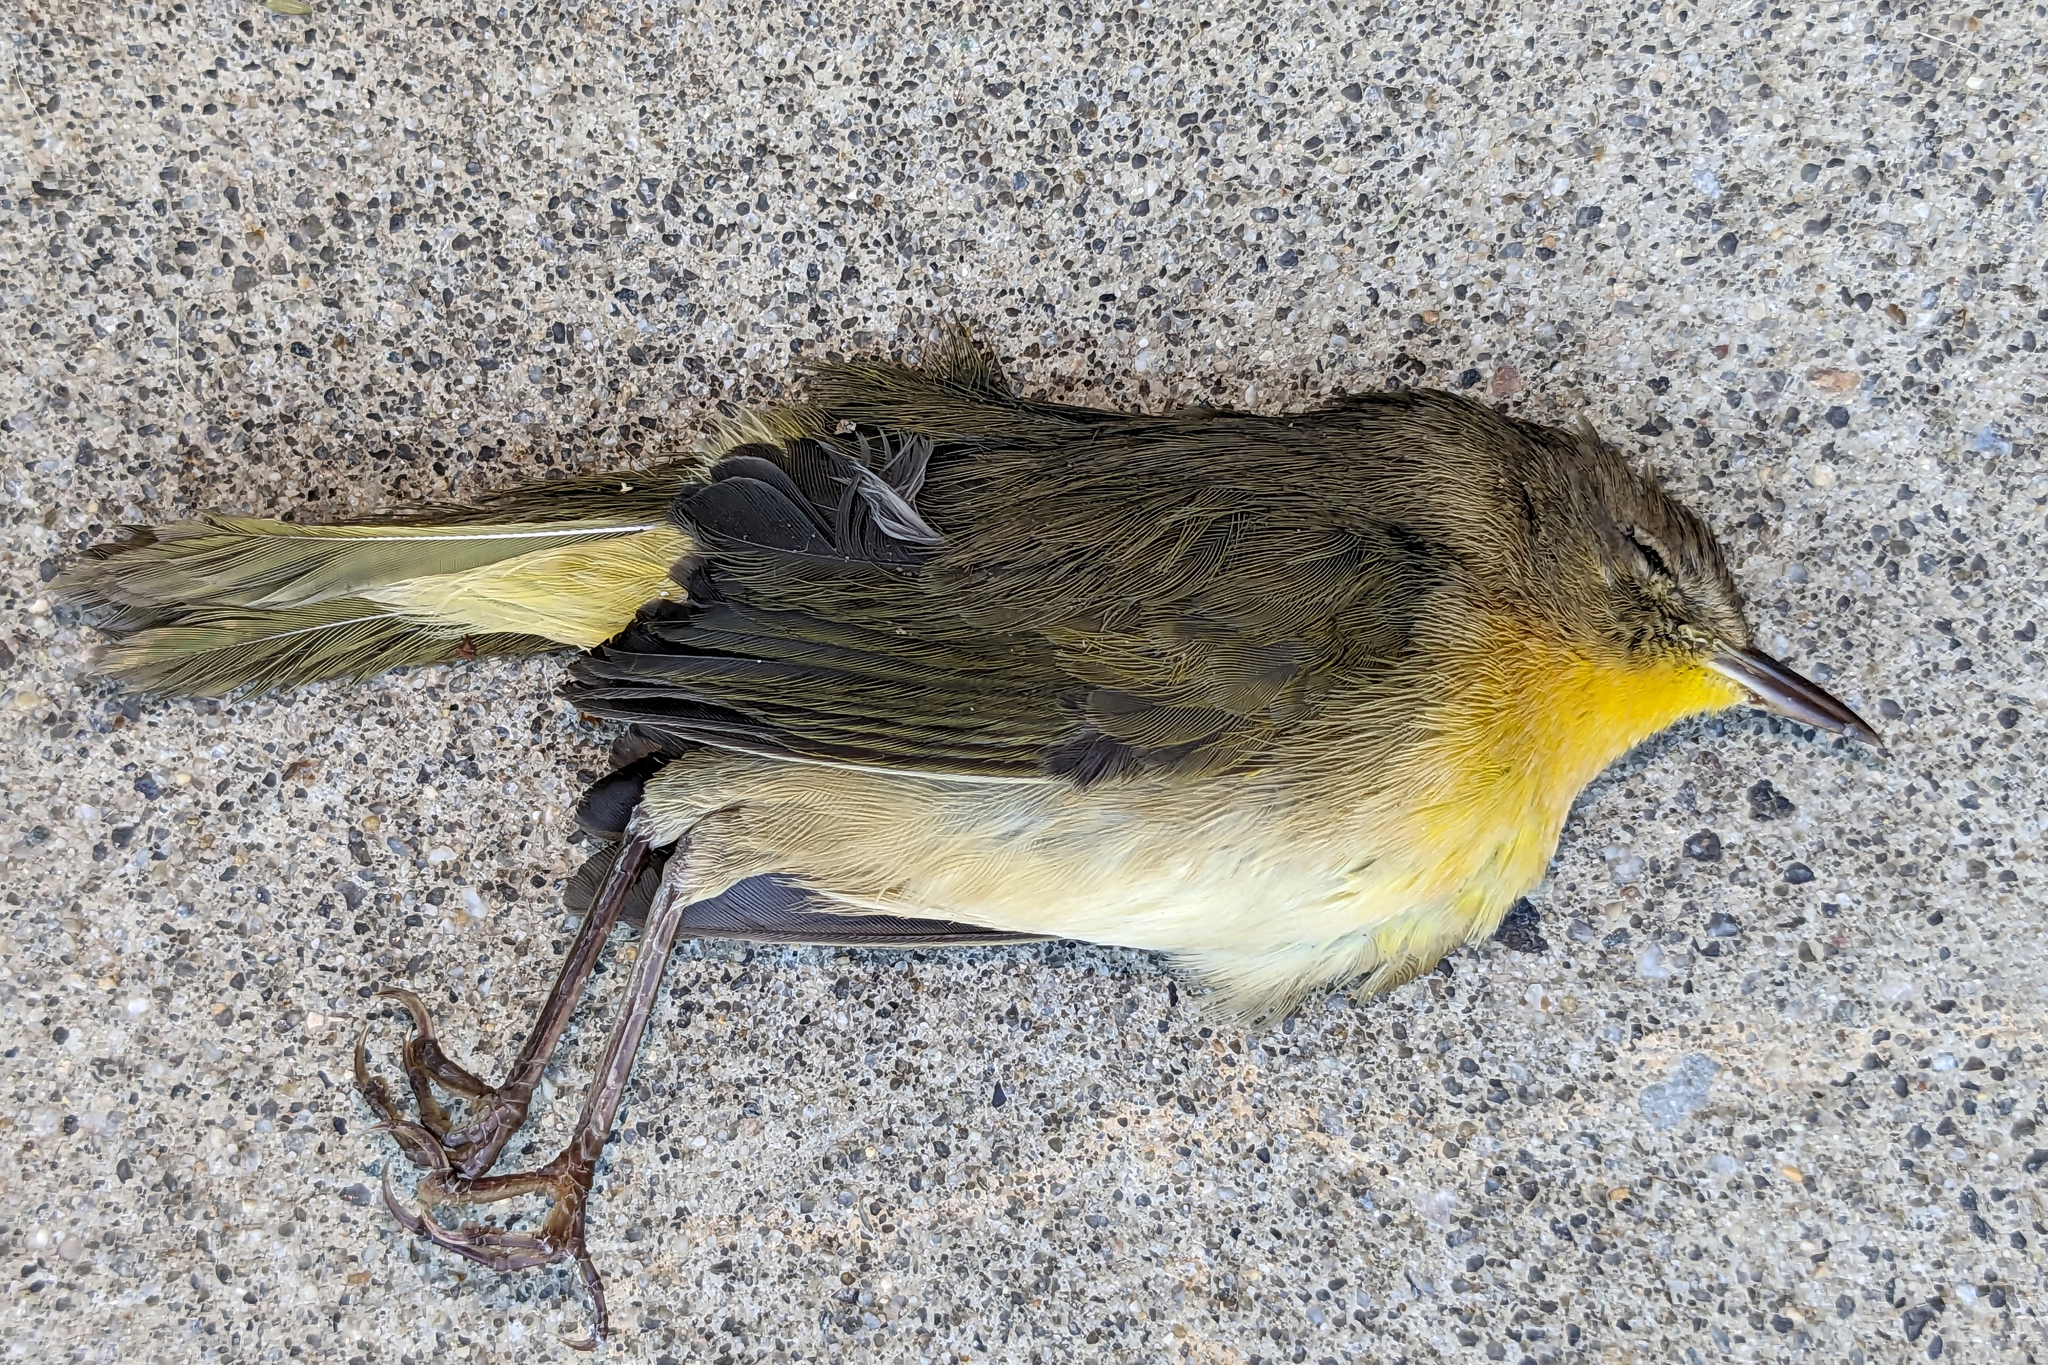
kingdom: Animalia
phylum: Chordata
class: Aves
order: Passeriformes
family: Parulidae
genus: Geothlypis
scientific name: Geothlypis trichas
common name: Common yellowthroat
